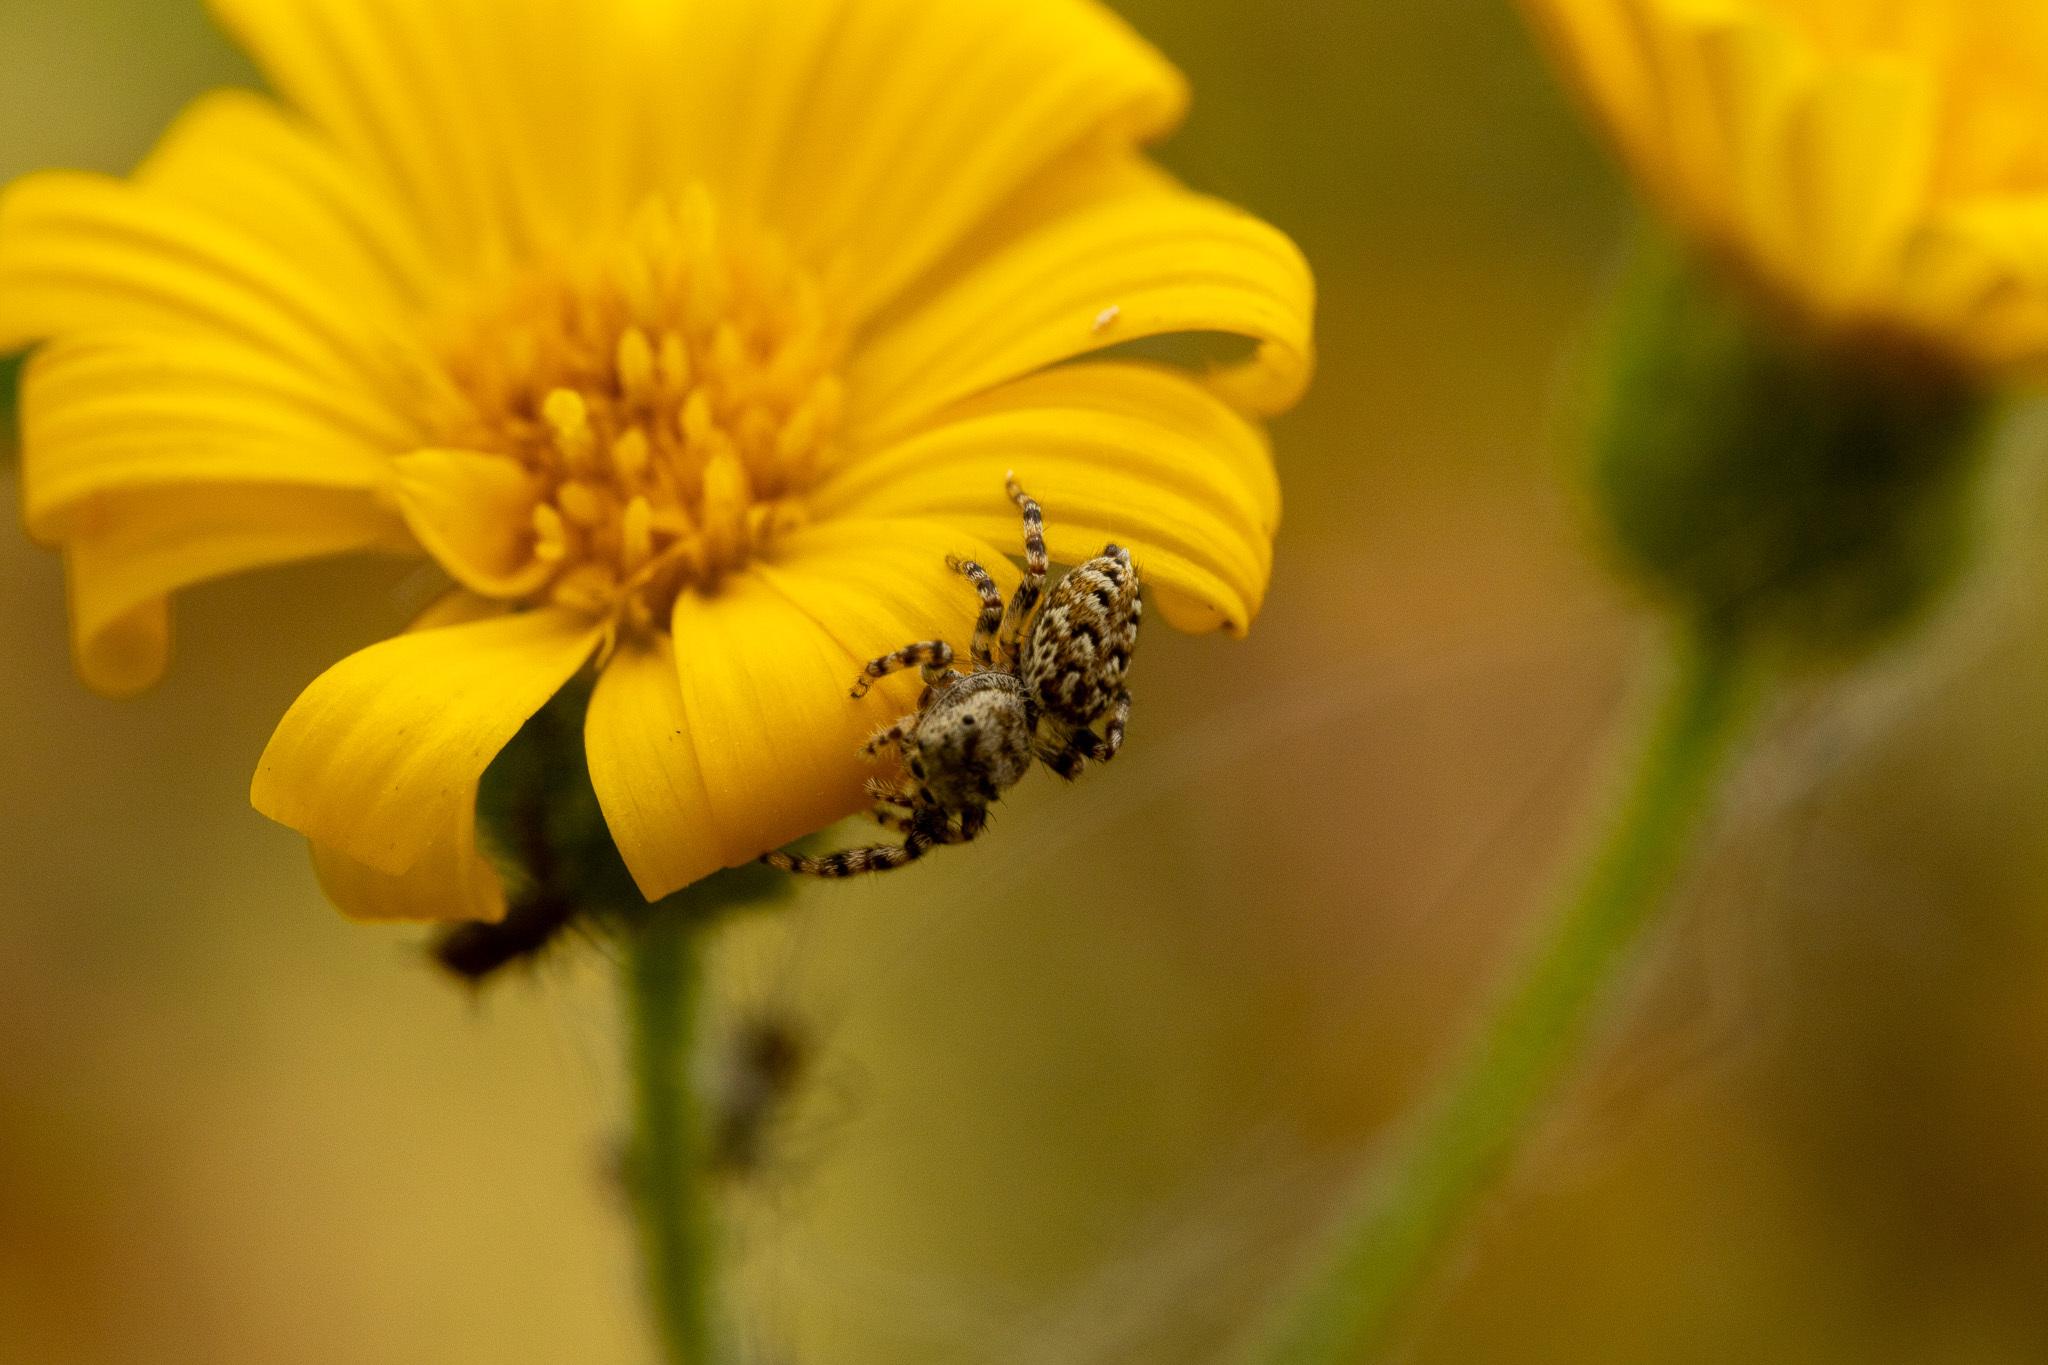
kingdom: Animalia
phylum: Arthropoda
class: Arachnida
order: Araneae
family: Salticidae
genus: Pelegrina
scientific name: Pelegrina galathea
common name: Jumping spiders
